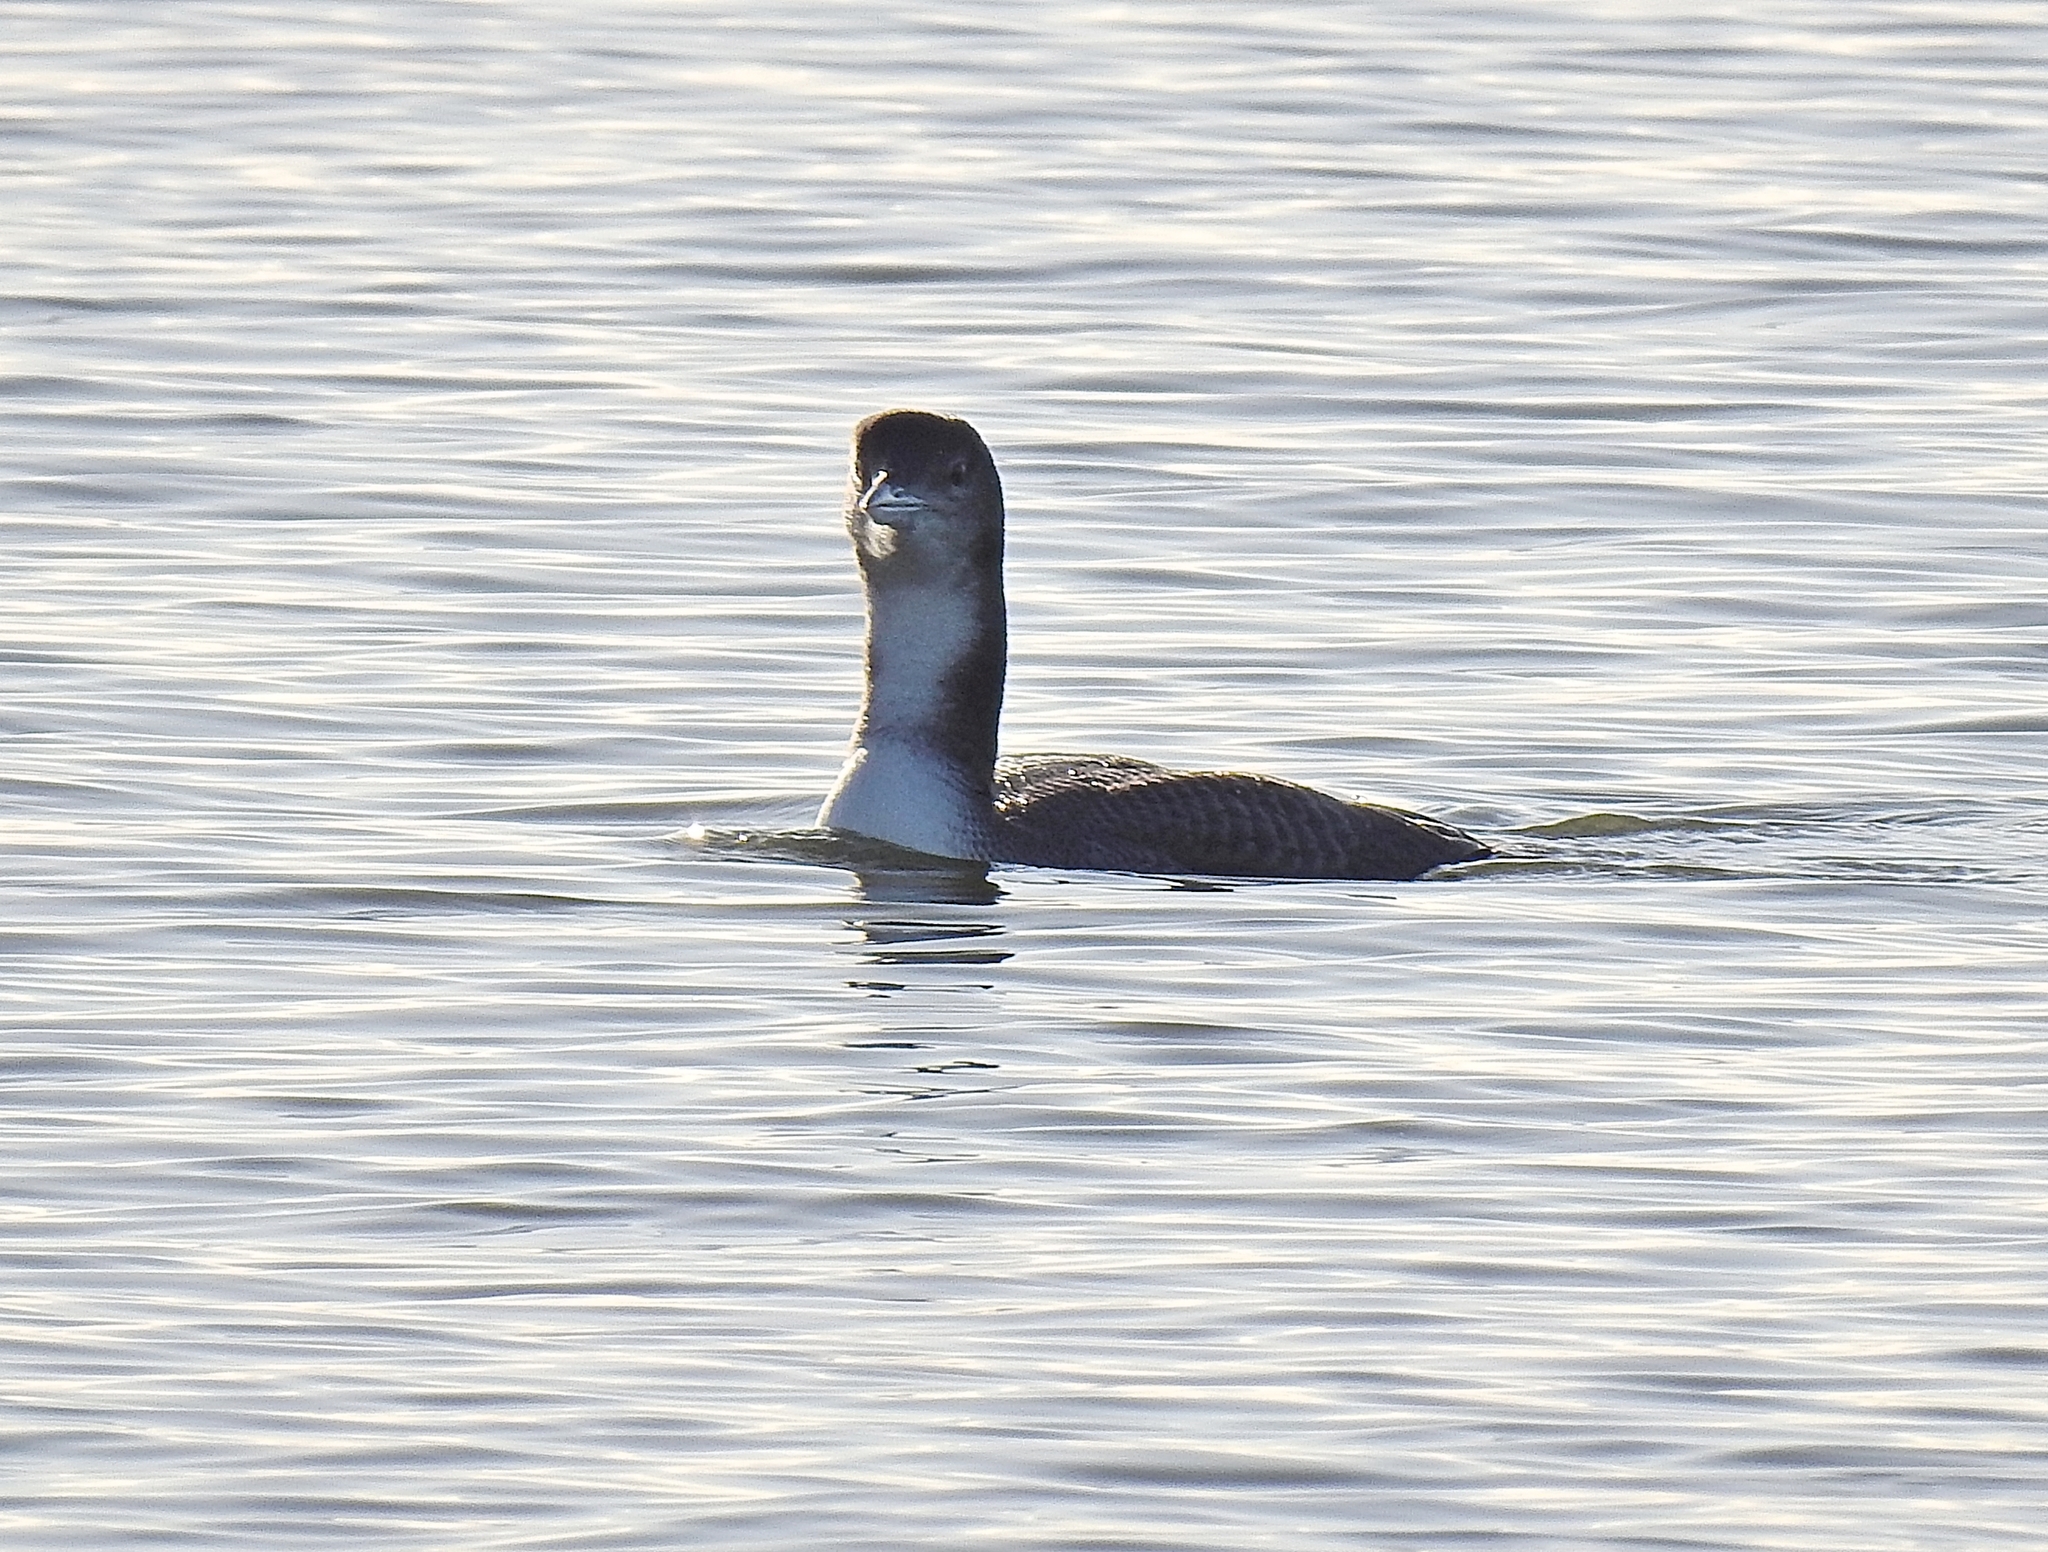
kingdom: Animalia
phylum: Chordata
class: Aves
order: Gaviiformes
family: Gaviidae
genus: Gavia
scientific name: Gavia immer
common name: Common loon
